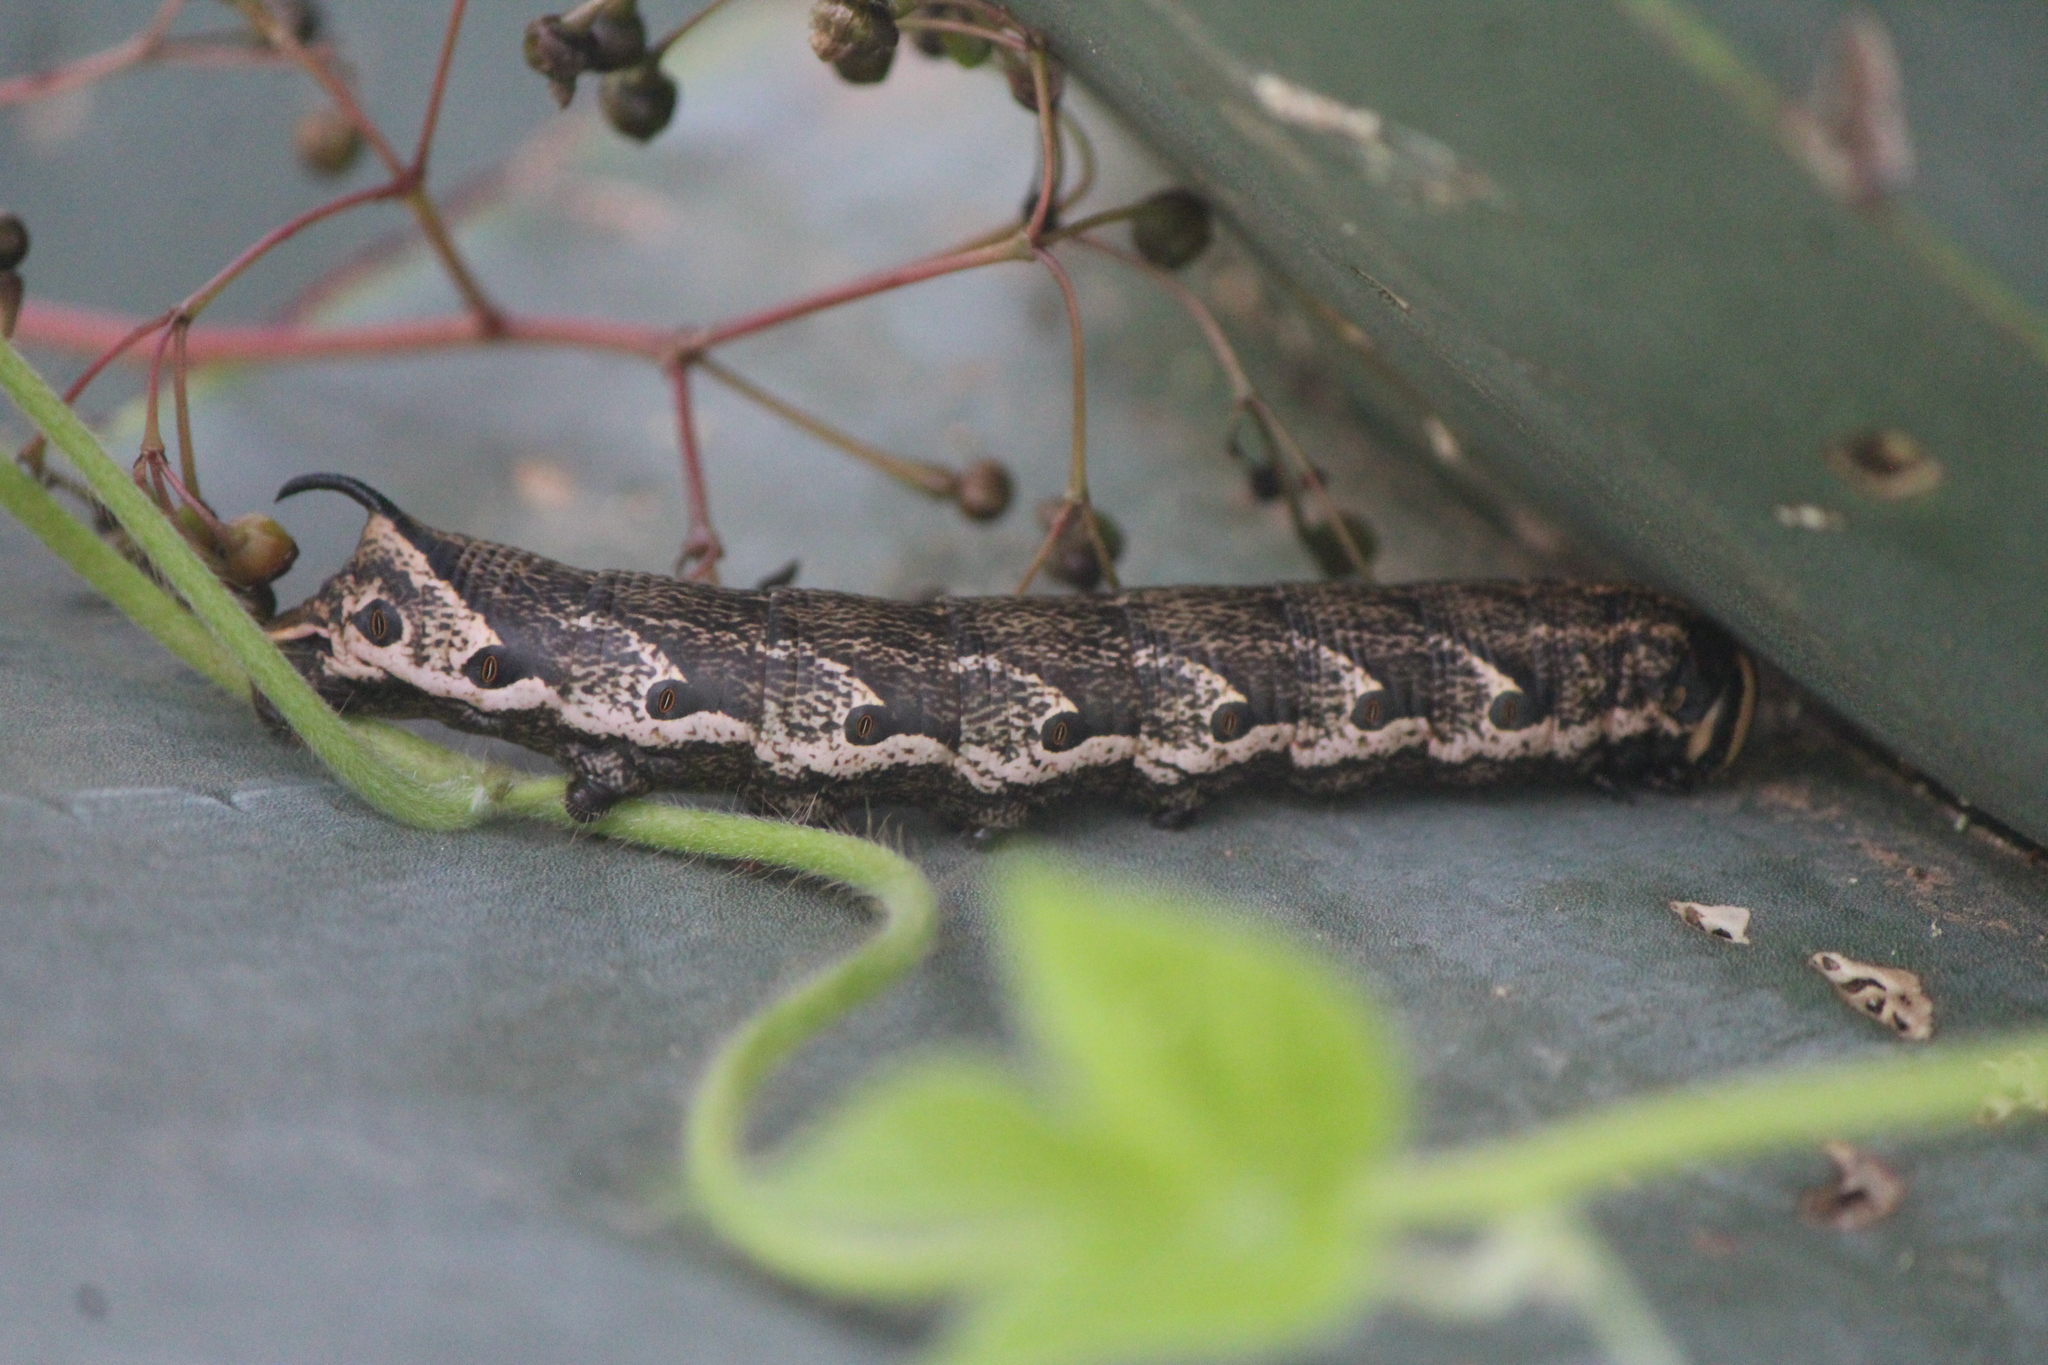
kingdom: Animalia
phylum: Arthropoda
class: Insecta
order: Lepidoptera
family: Sphingidae
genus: Agrius
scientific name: Agrius cingulata
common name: Pink-spotted hawkmoth
